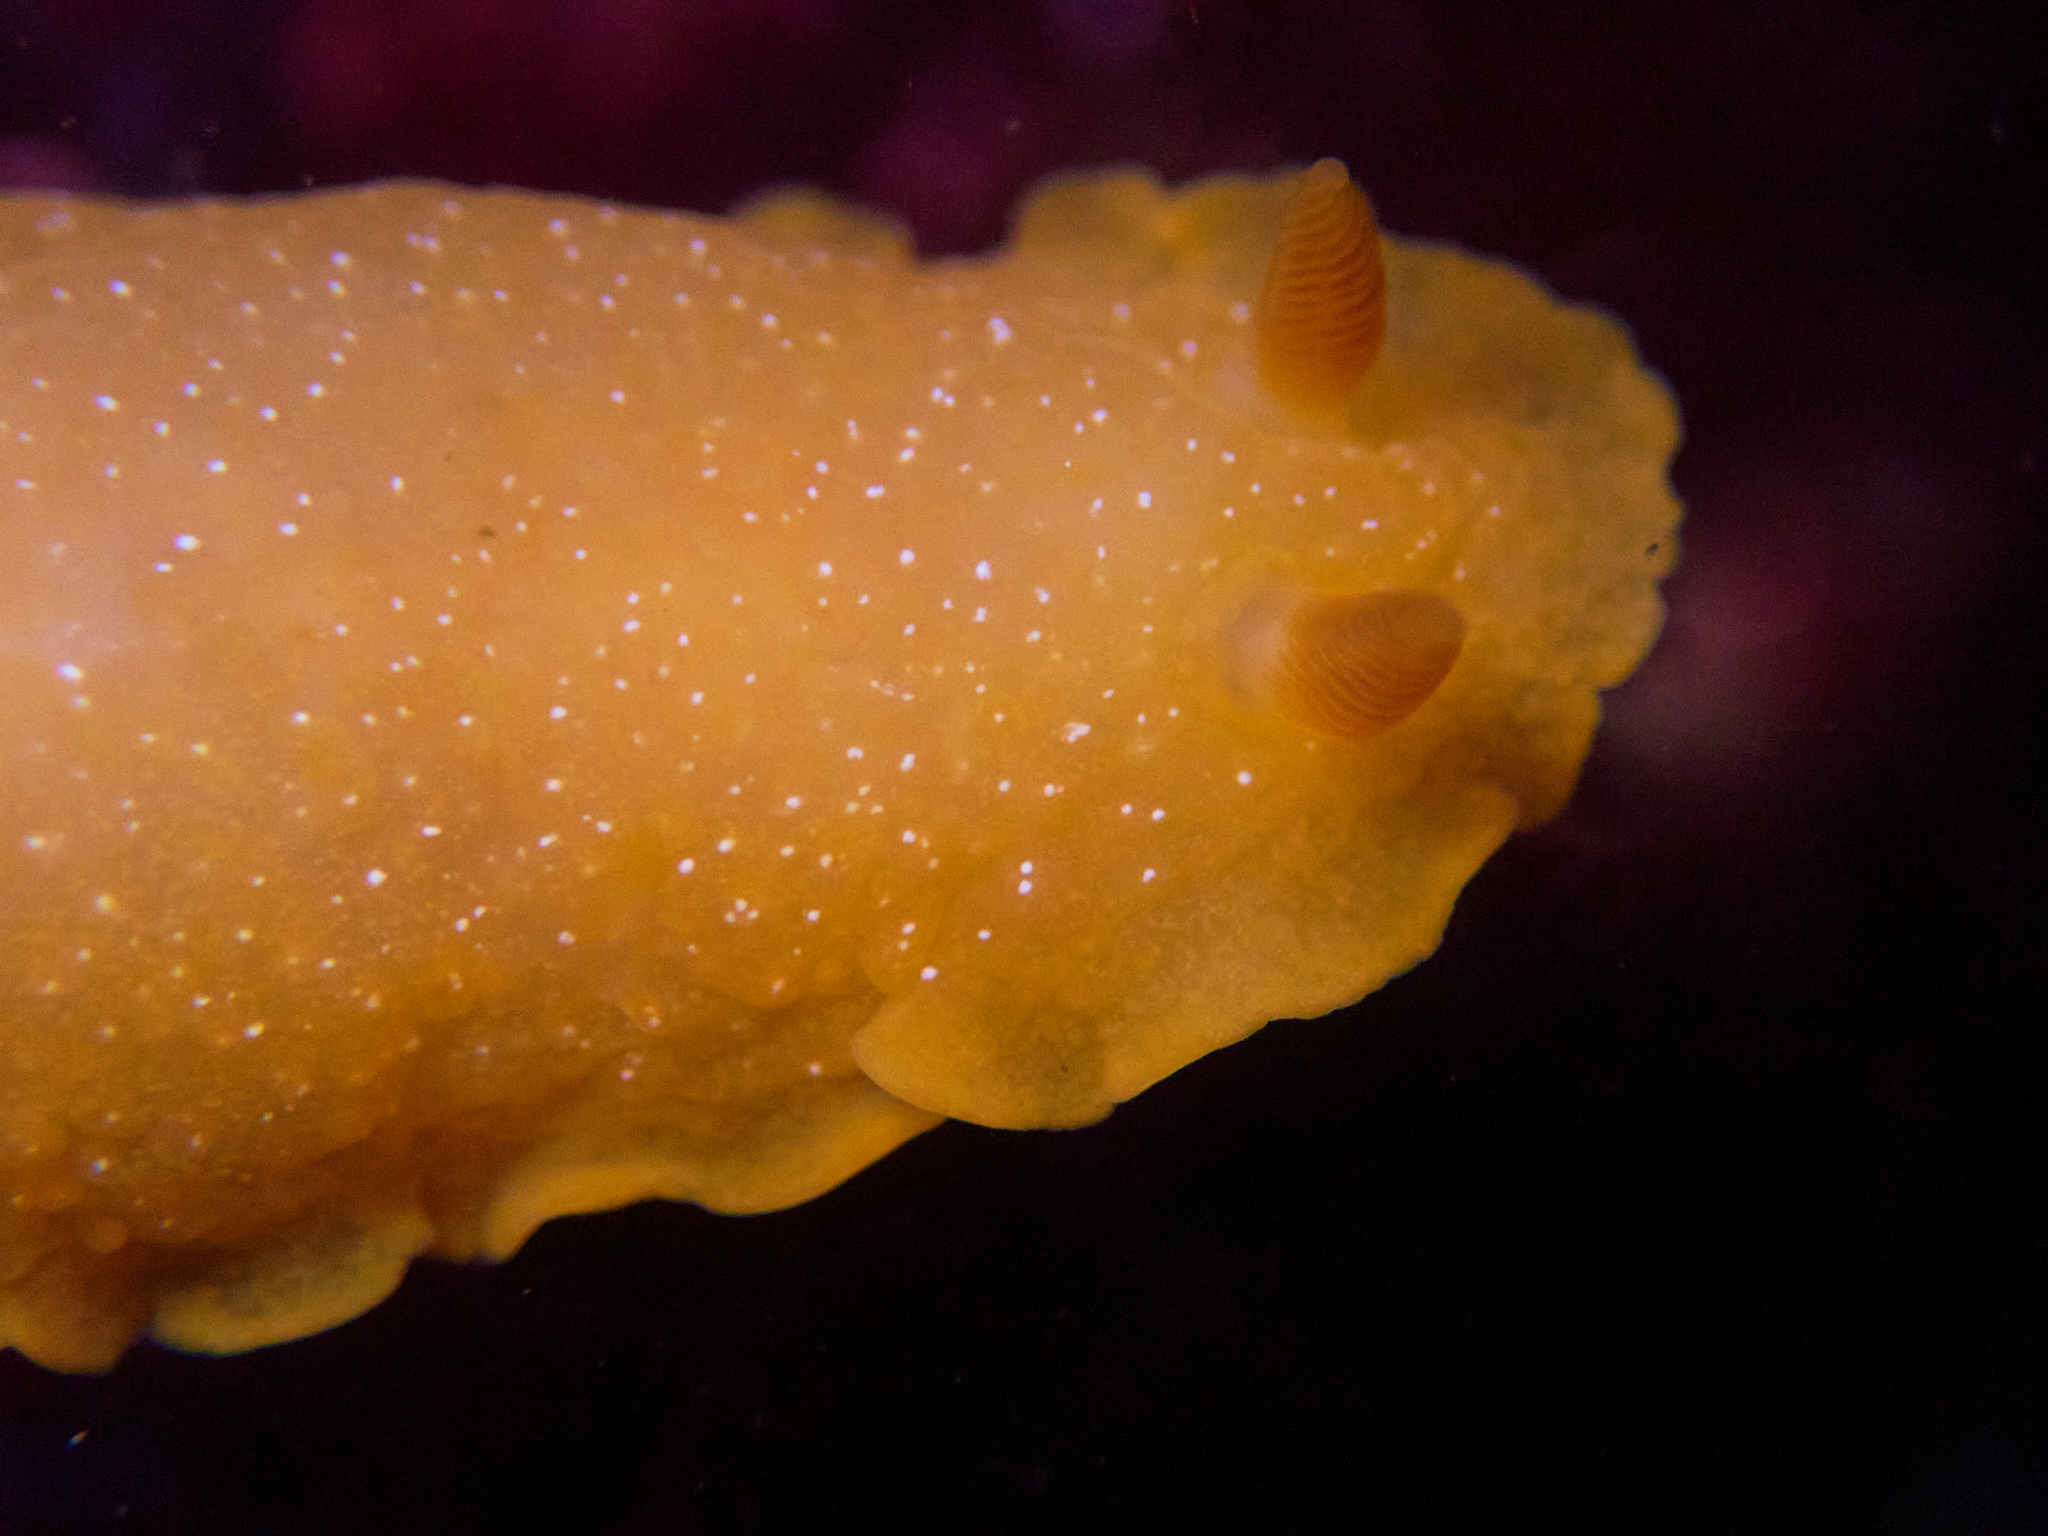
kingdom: Animalia
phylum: Mollusca
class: Gastropoda
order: Nudibranchia
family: Dendrodorididae
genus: Doriopsilla
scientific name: Doriopsilla fulva
